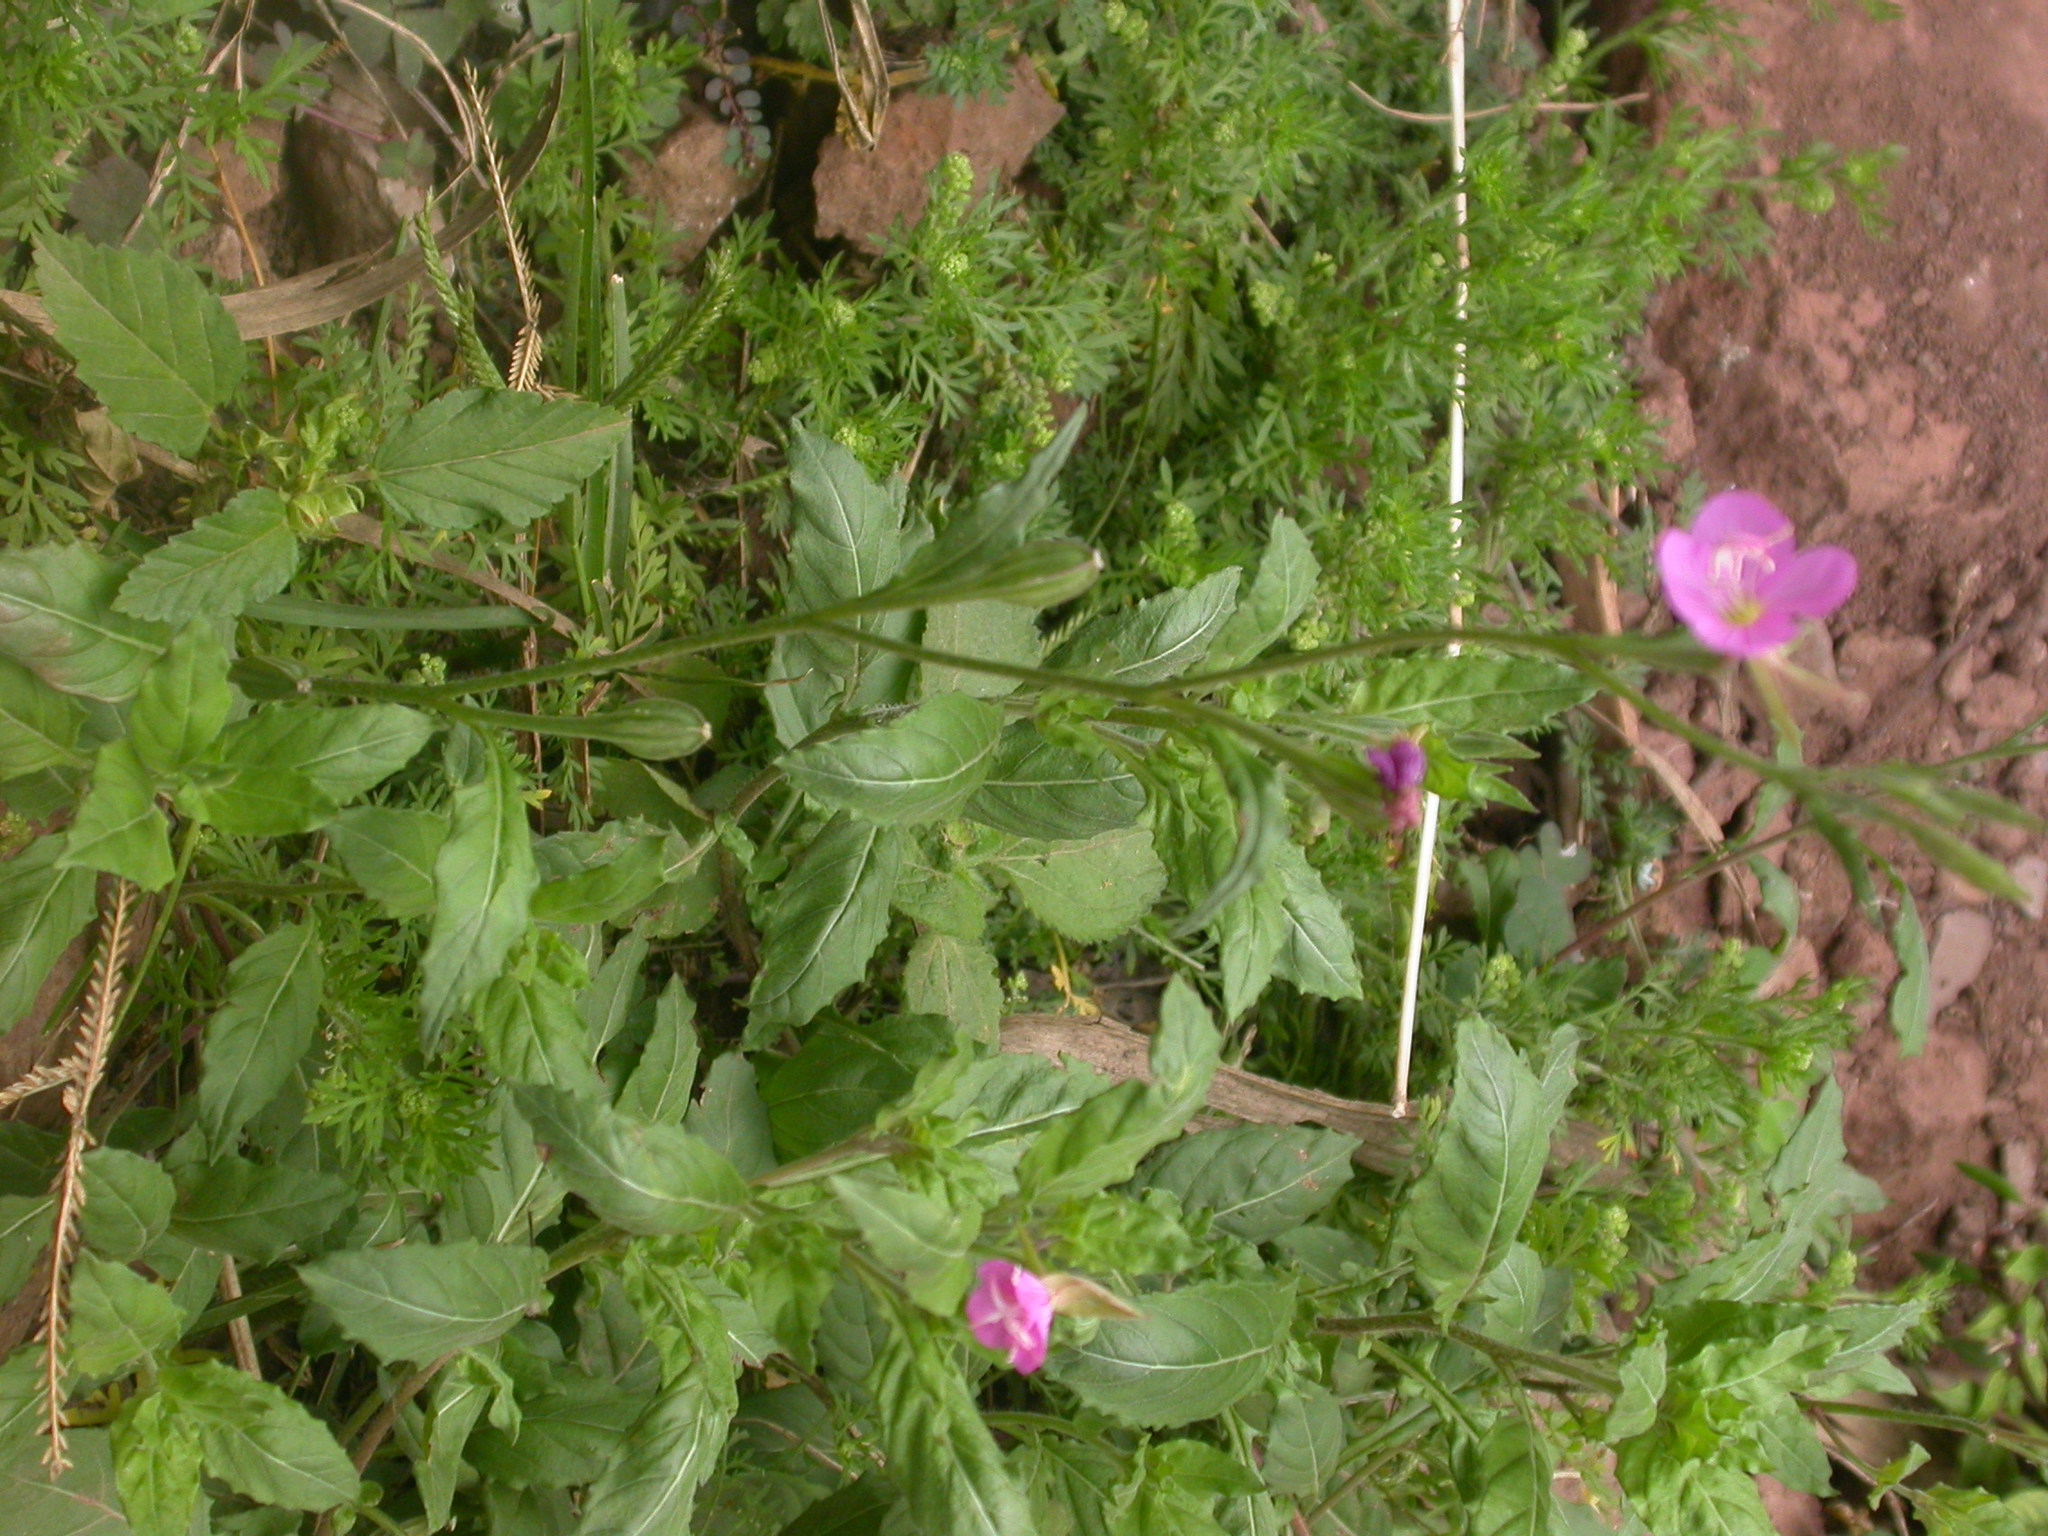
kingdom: Plantae
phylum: Tracheophyta
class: Magnoliopsida
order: Myrtales
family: Onagraceae
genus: Oenothera
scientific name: Oenothera rosea
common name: Rosy evening-primrose
